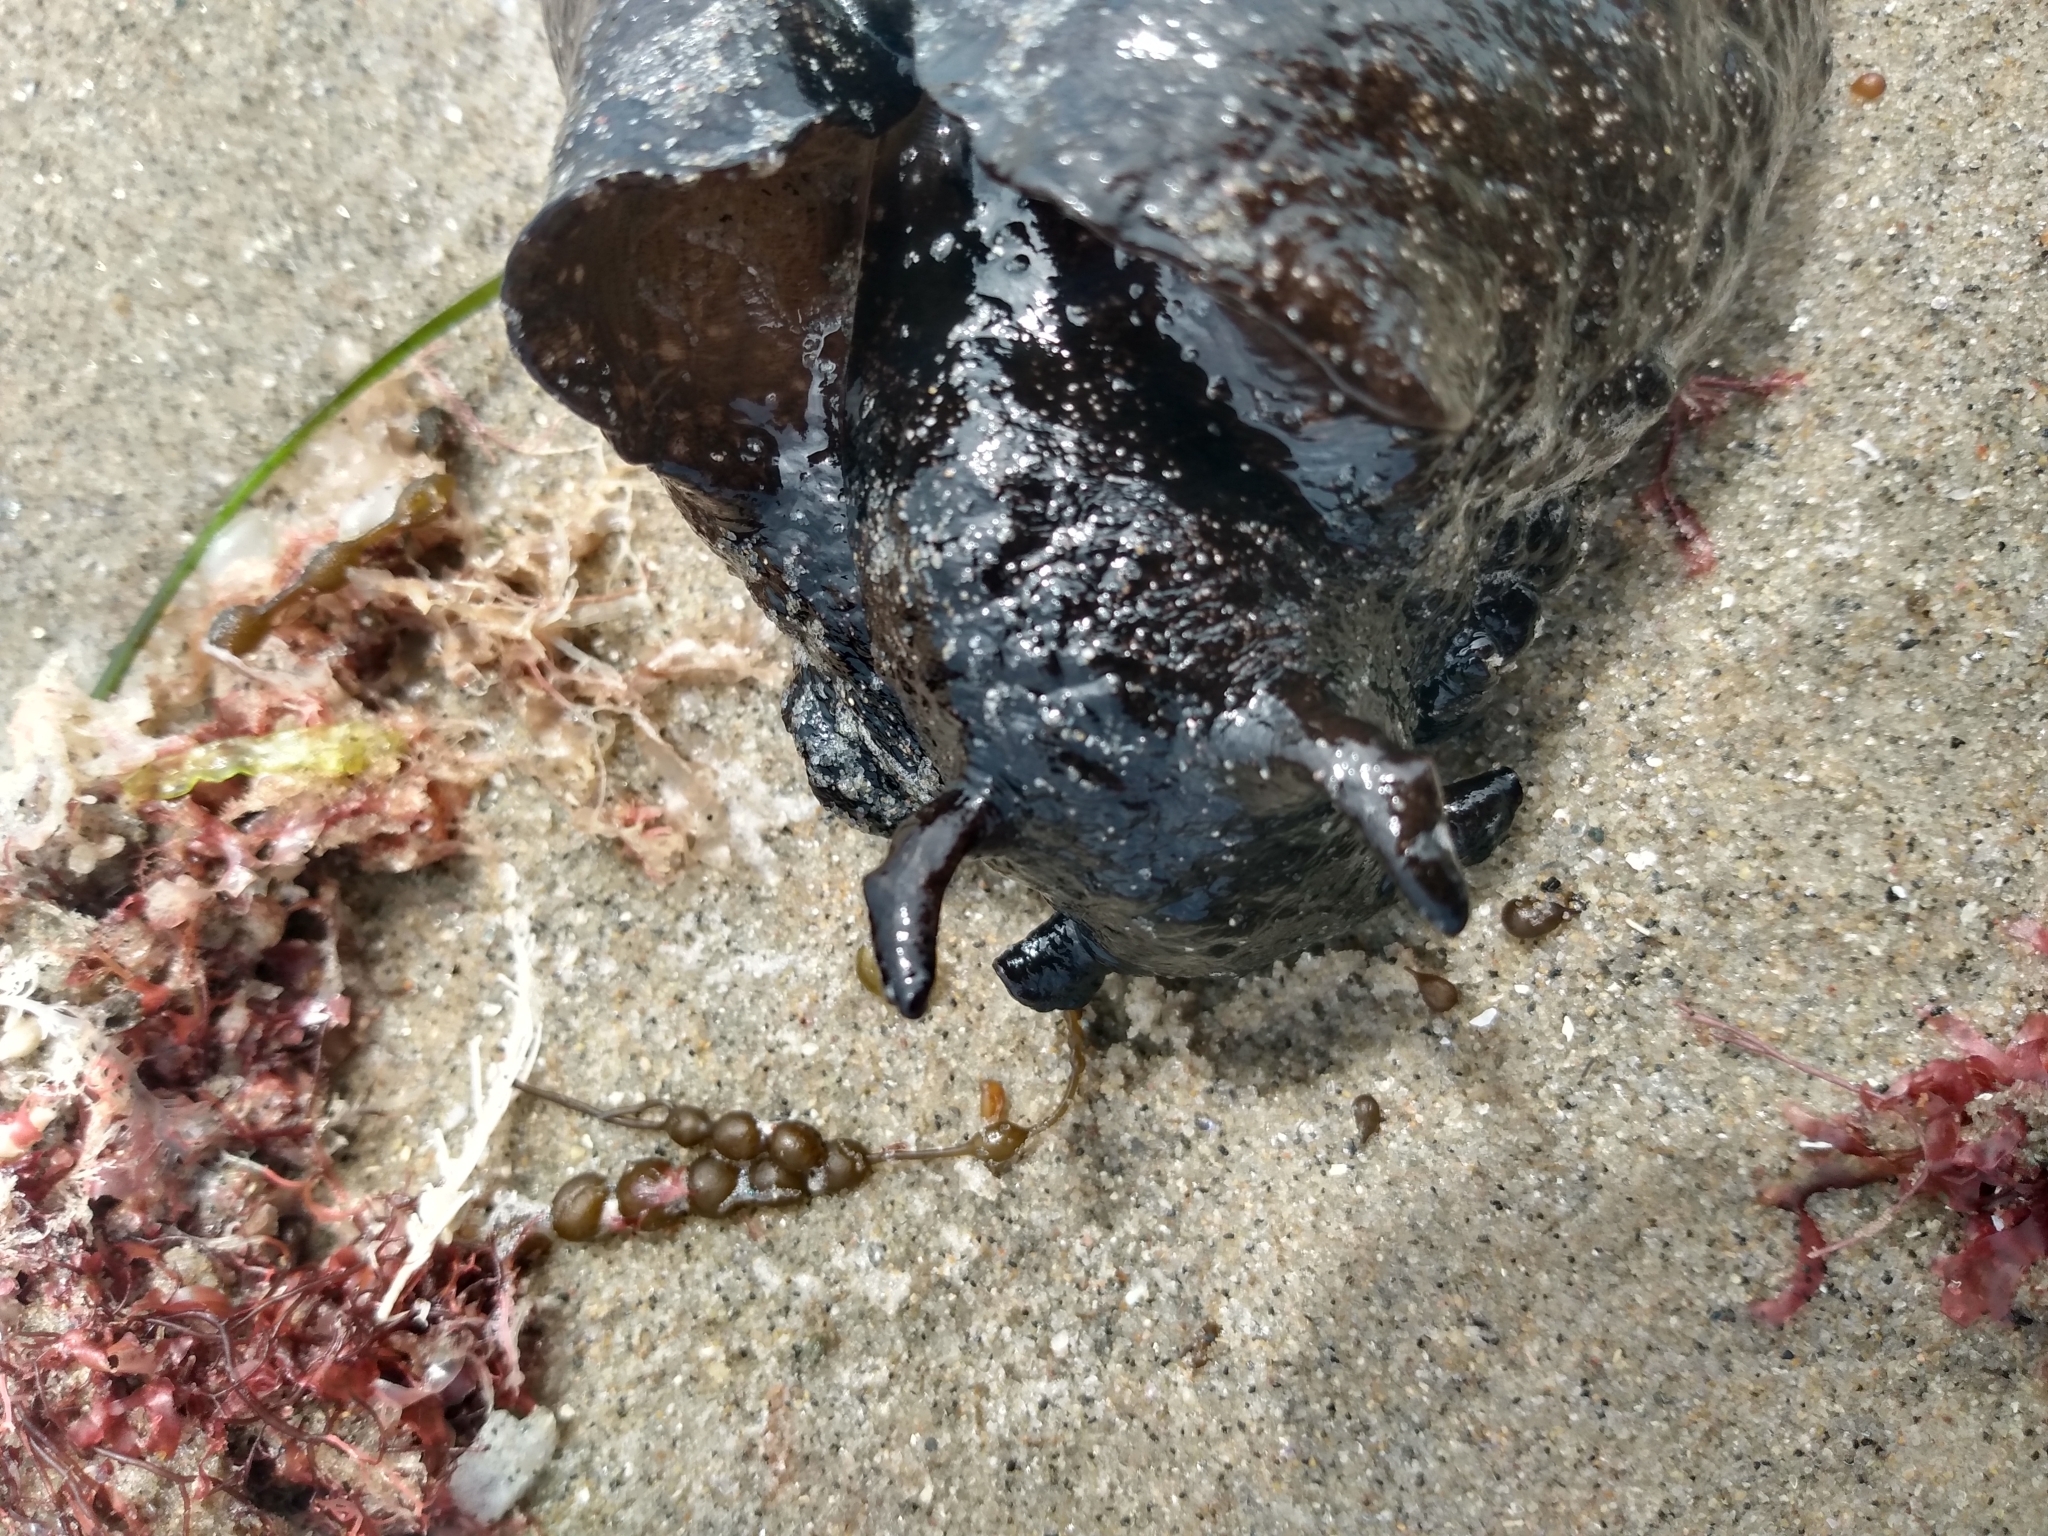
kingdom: Animalia
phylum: Mollusca
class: Gastropoda
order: Aplysiida
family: Aplysiidae
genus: Aplysia
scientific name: Aplysia vaccaria
